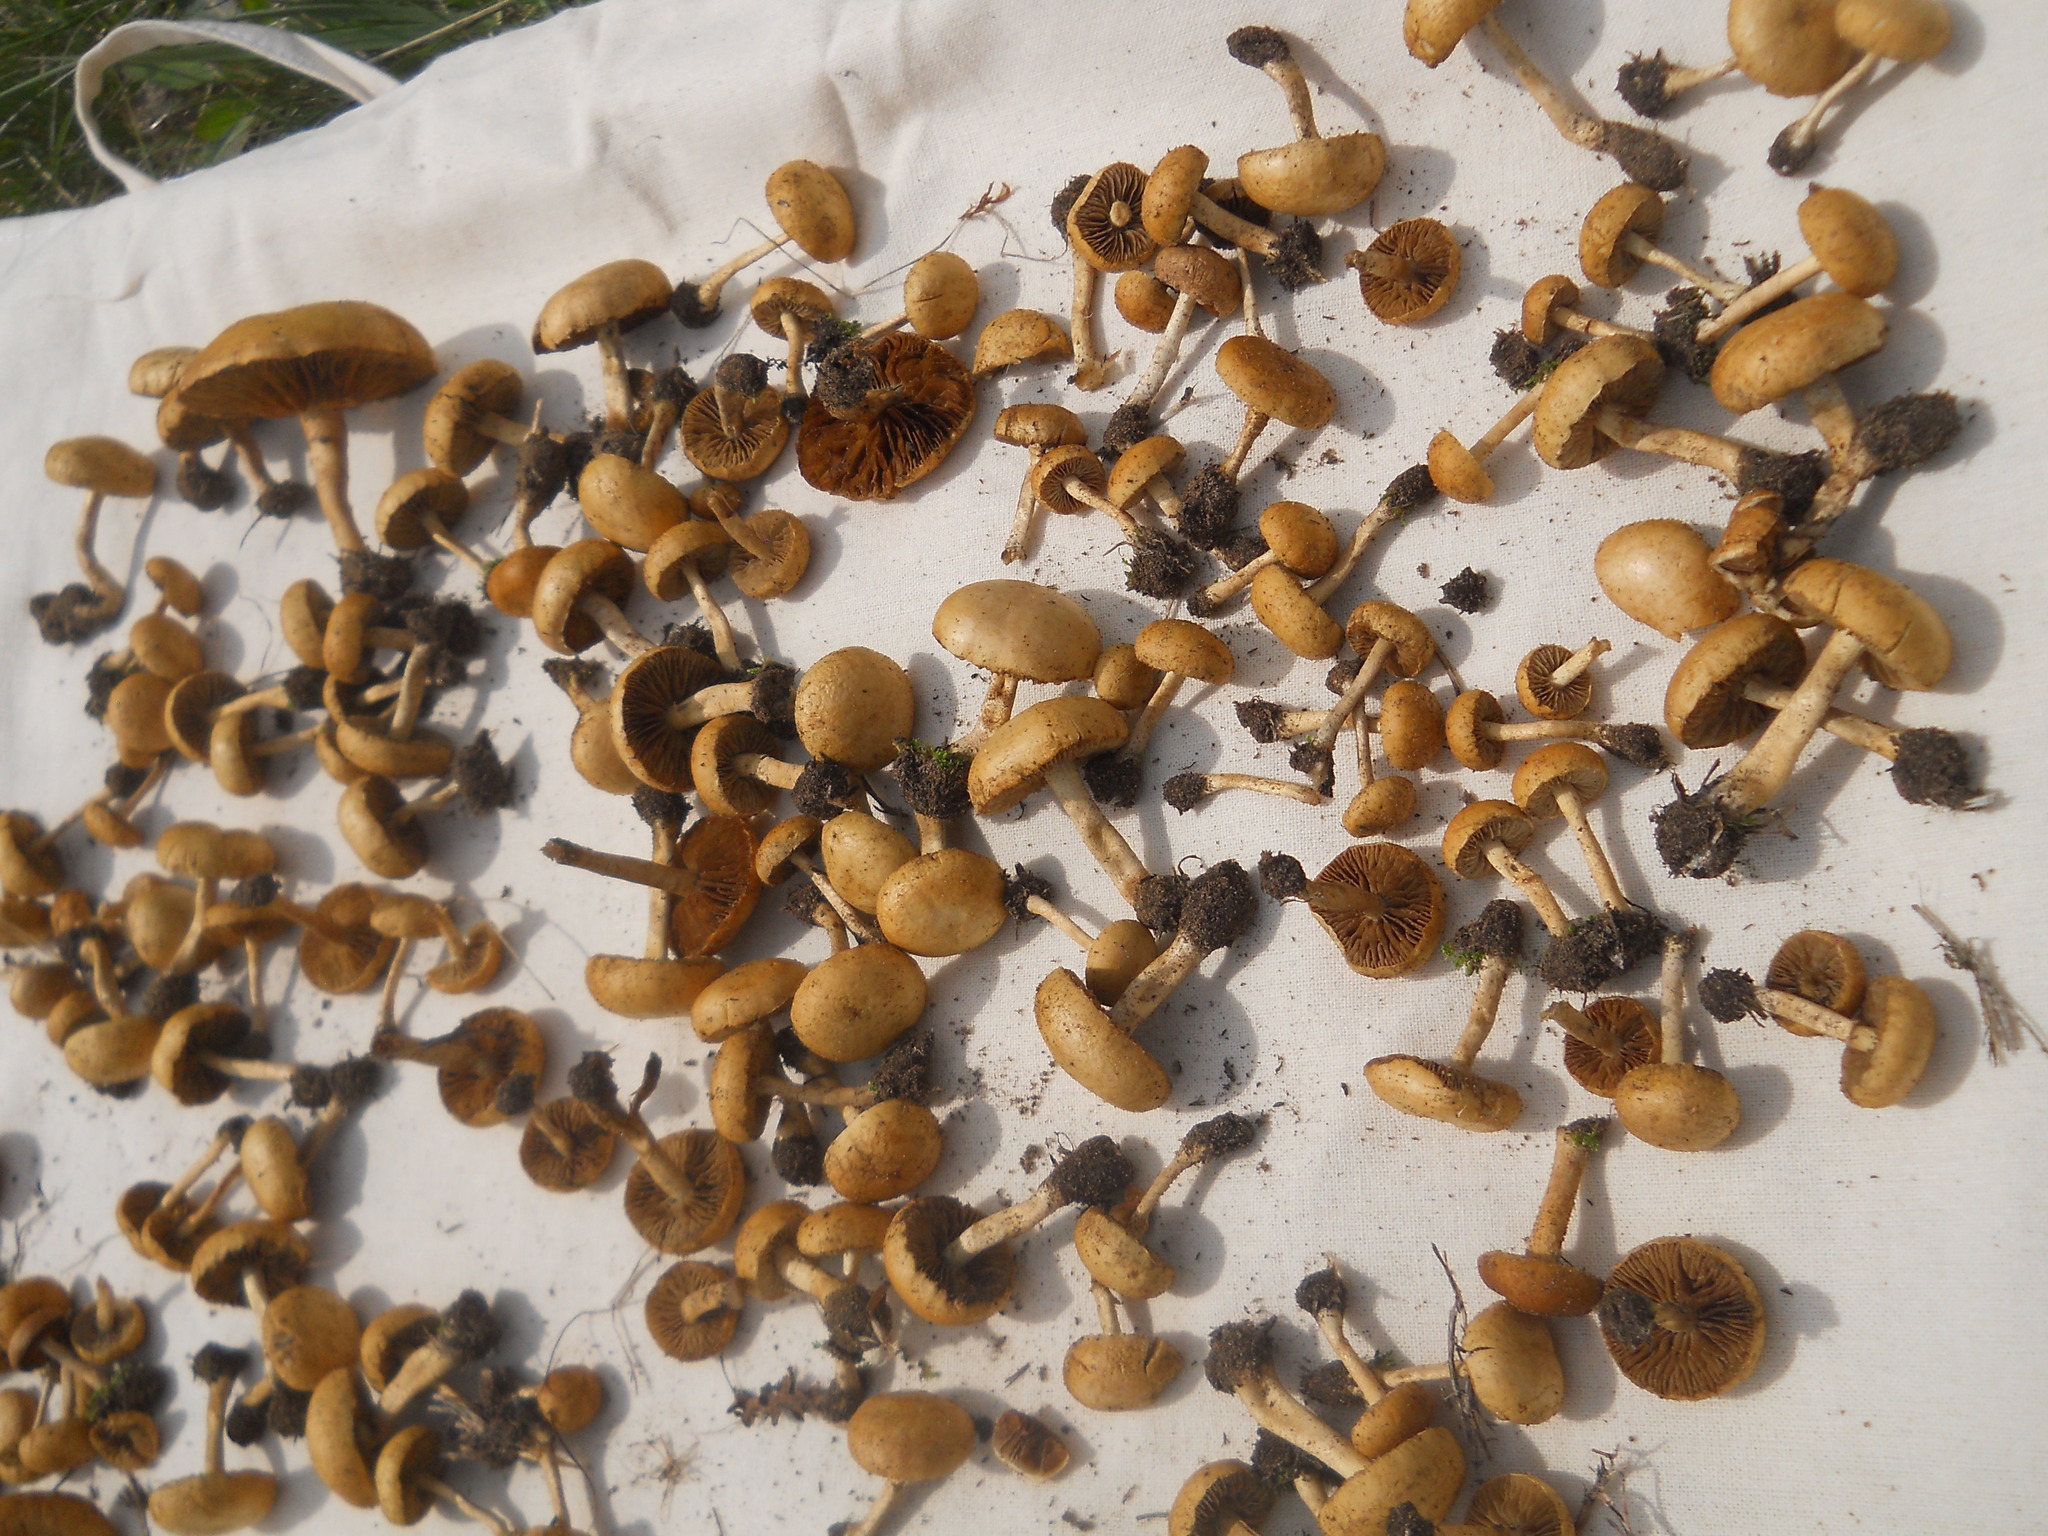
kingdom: Fungi
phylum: Basidiomycota
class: Agaricomycetes
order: Agaricales
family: Inocybaceae
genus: Inocybe
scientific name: Inocybe dulcamara
